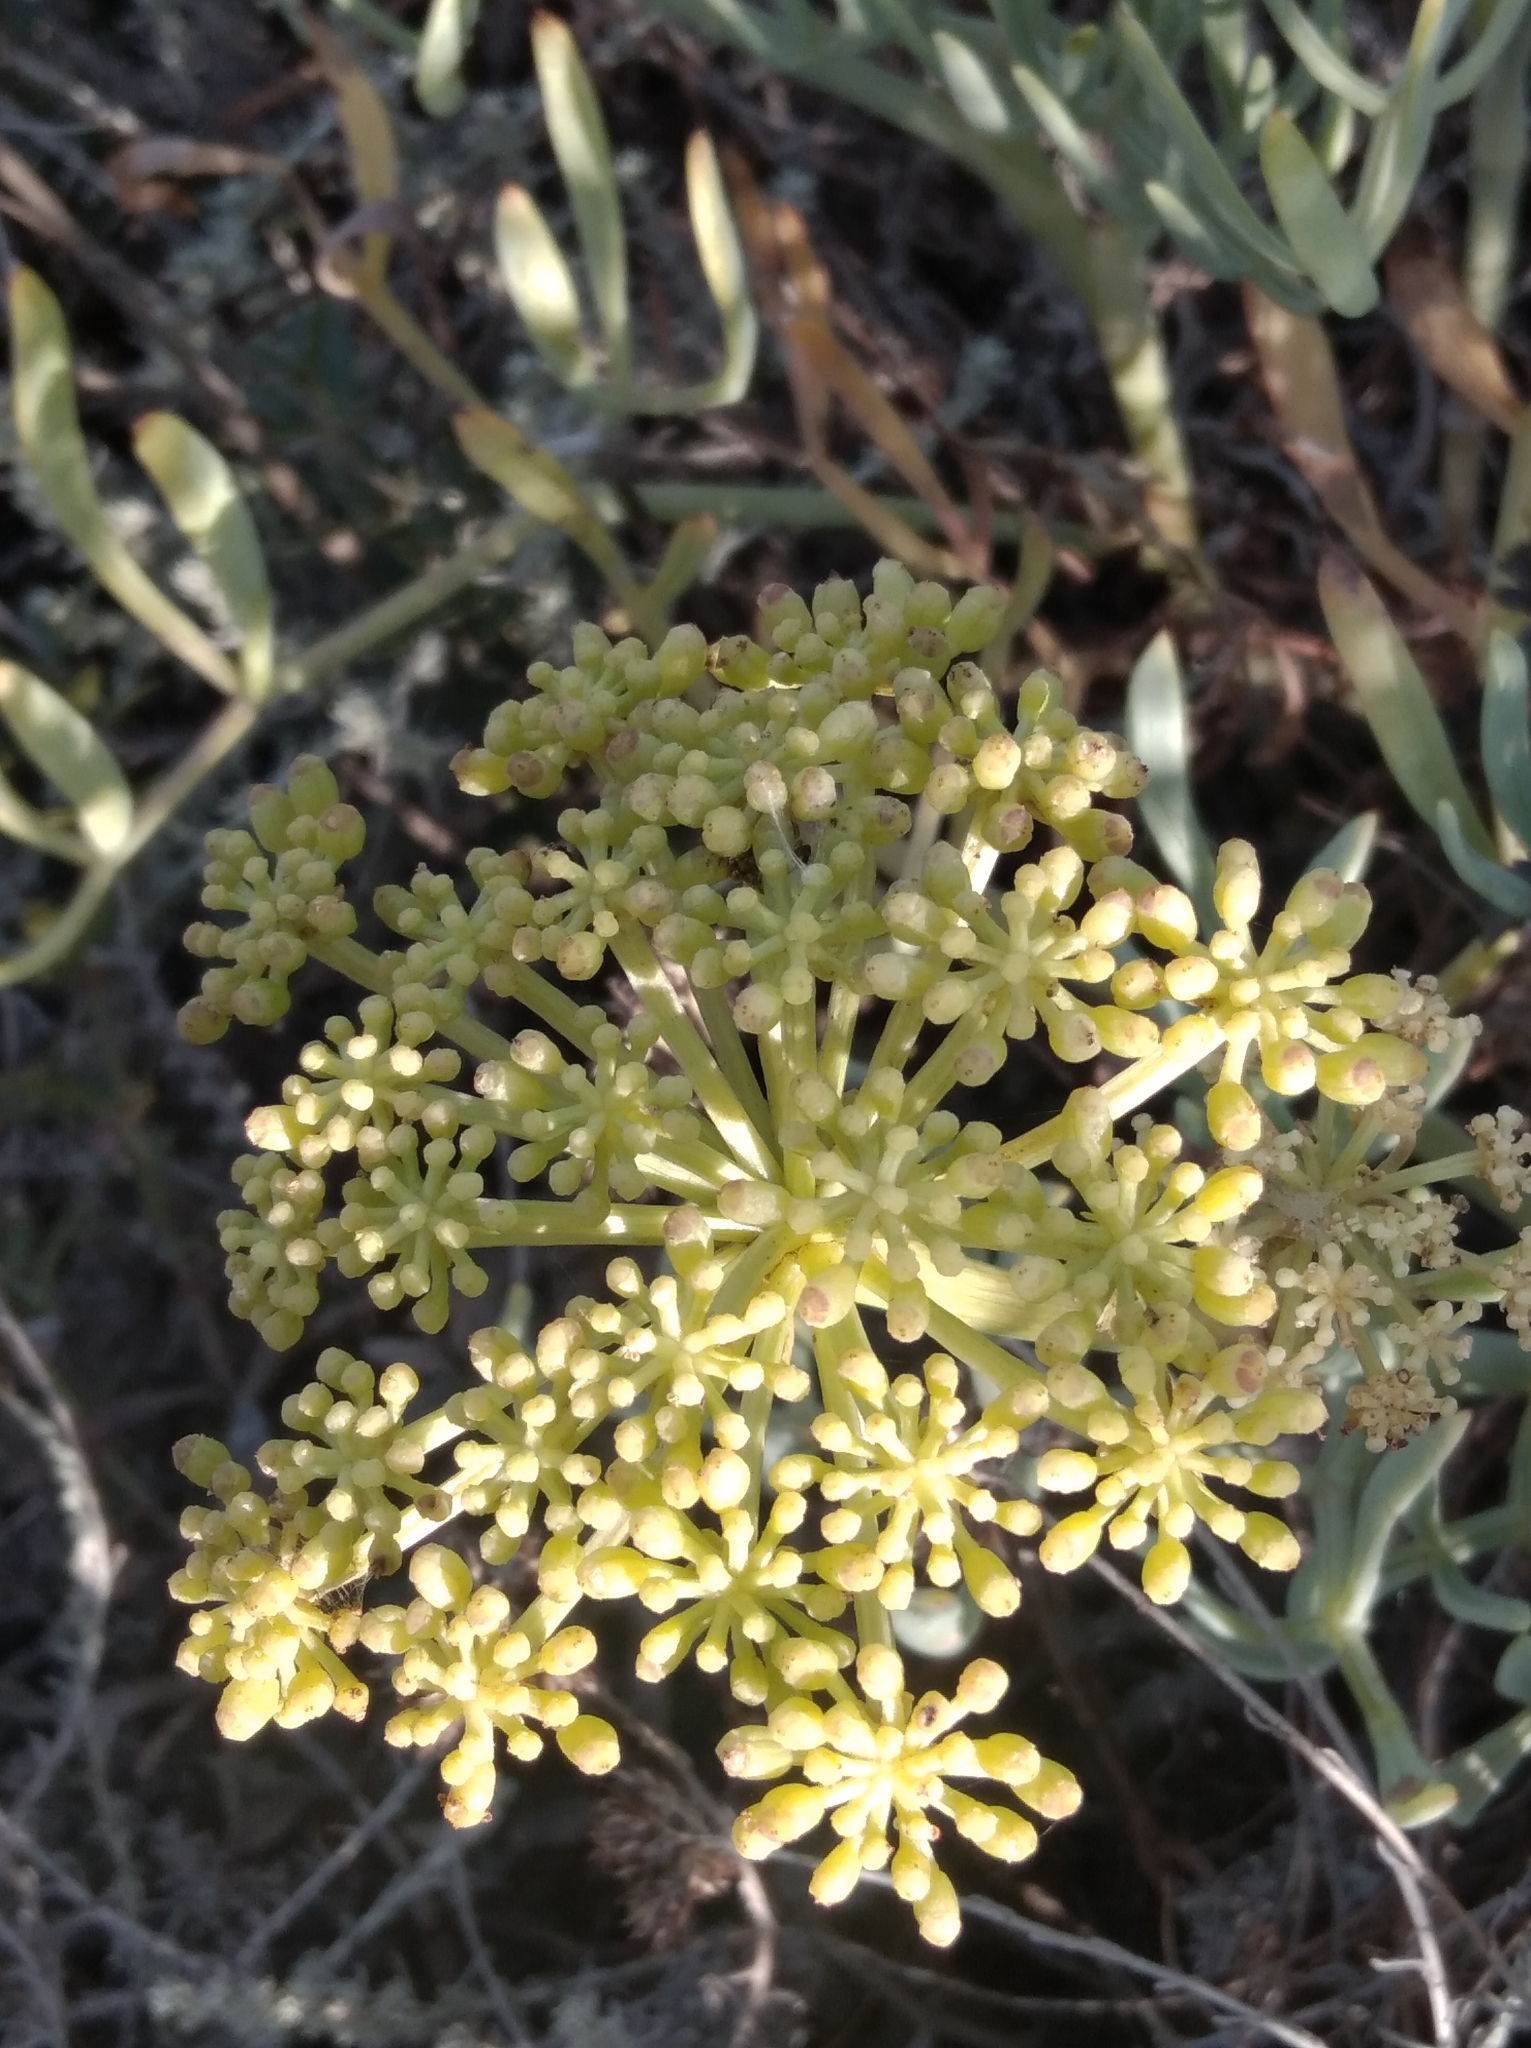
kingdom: Plantae
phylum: Tracheophyta
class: Magnoliopsida
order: Apiales
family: Apiaceae
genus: Crithmum
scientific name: Crithmum maritimum
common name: Rock samphire
